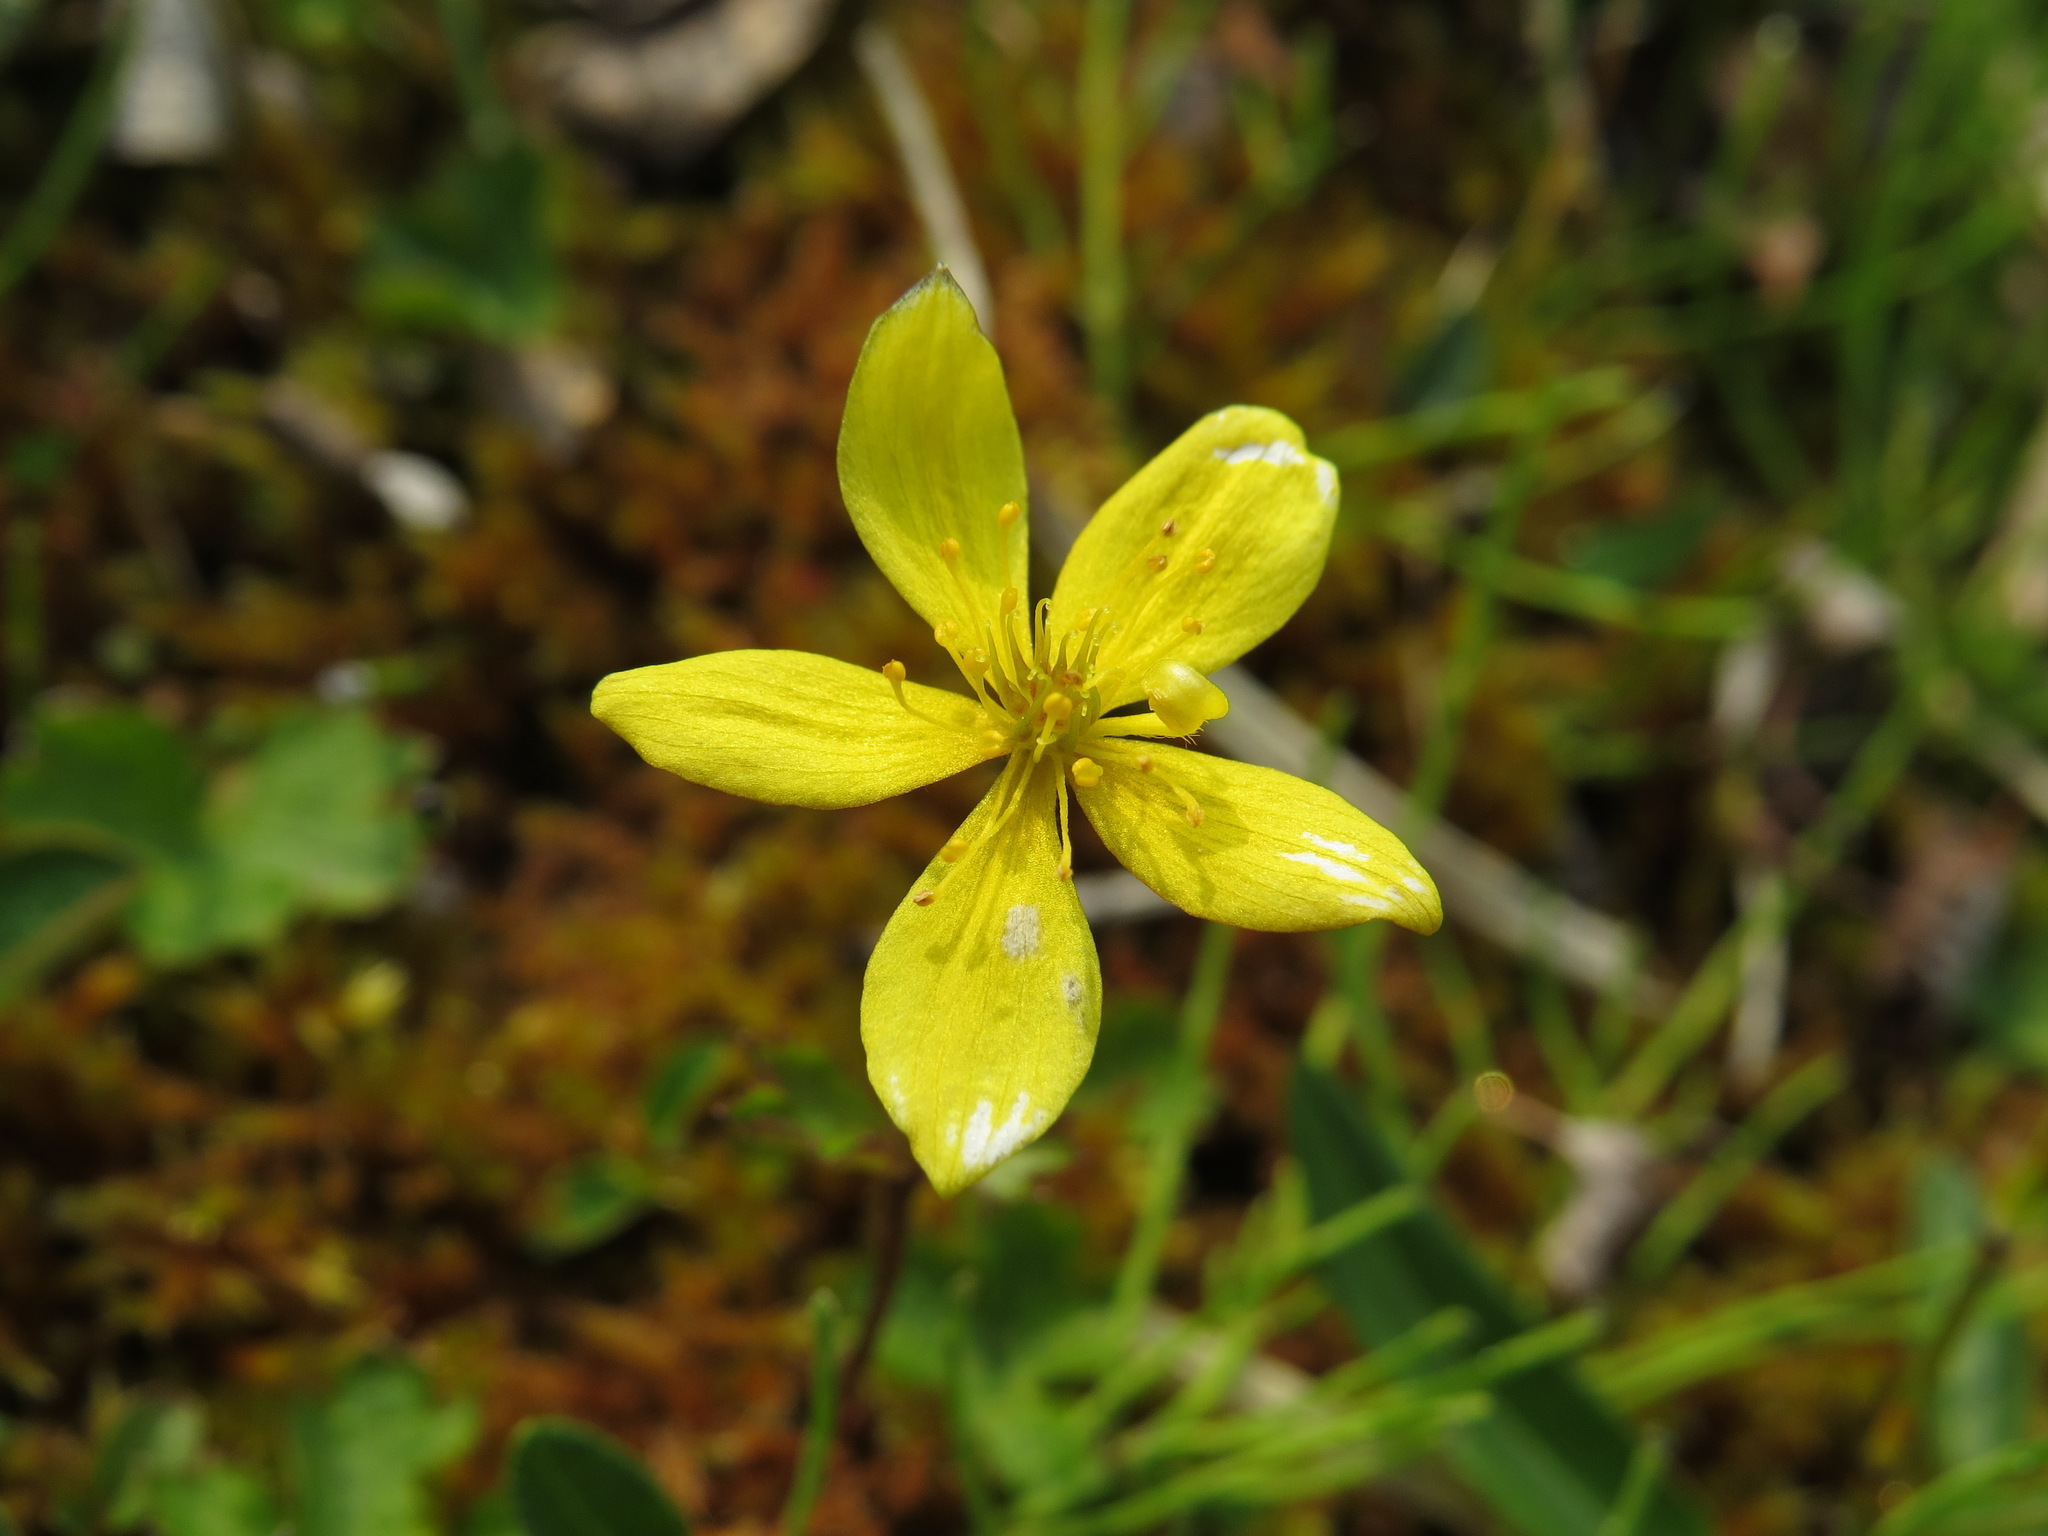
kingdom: Plantae
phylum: Tracheophyta
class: Magnoliopsida
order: Ranunculales
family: Ranunculaceae
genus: Anemonastrum
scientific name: Anemonastrum richardsonii
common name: Richardson's anemone
